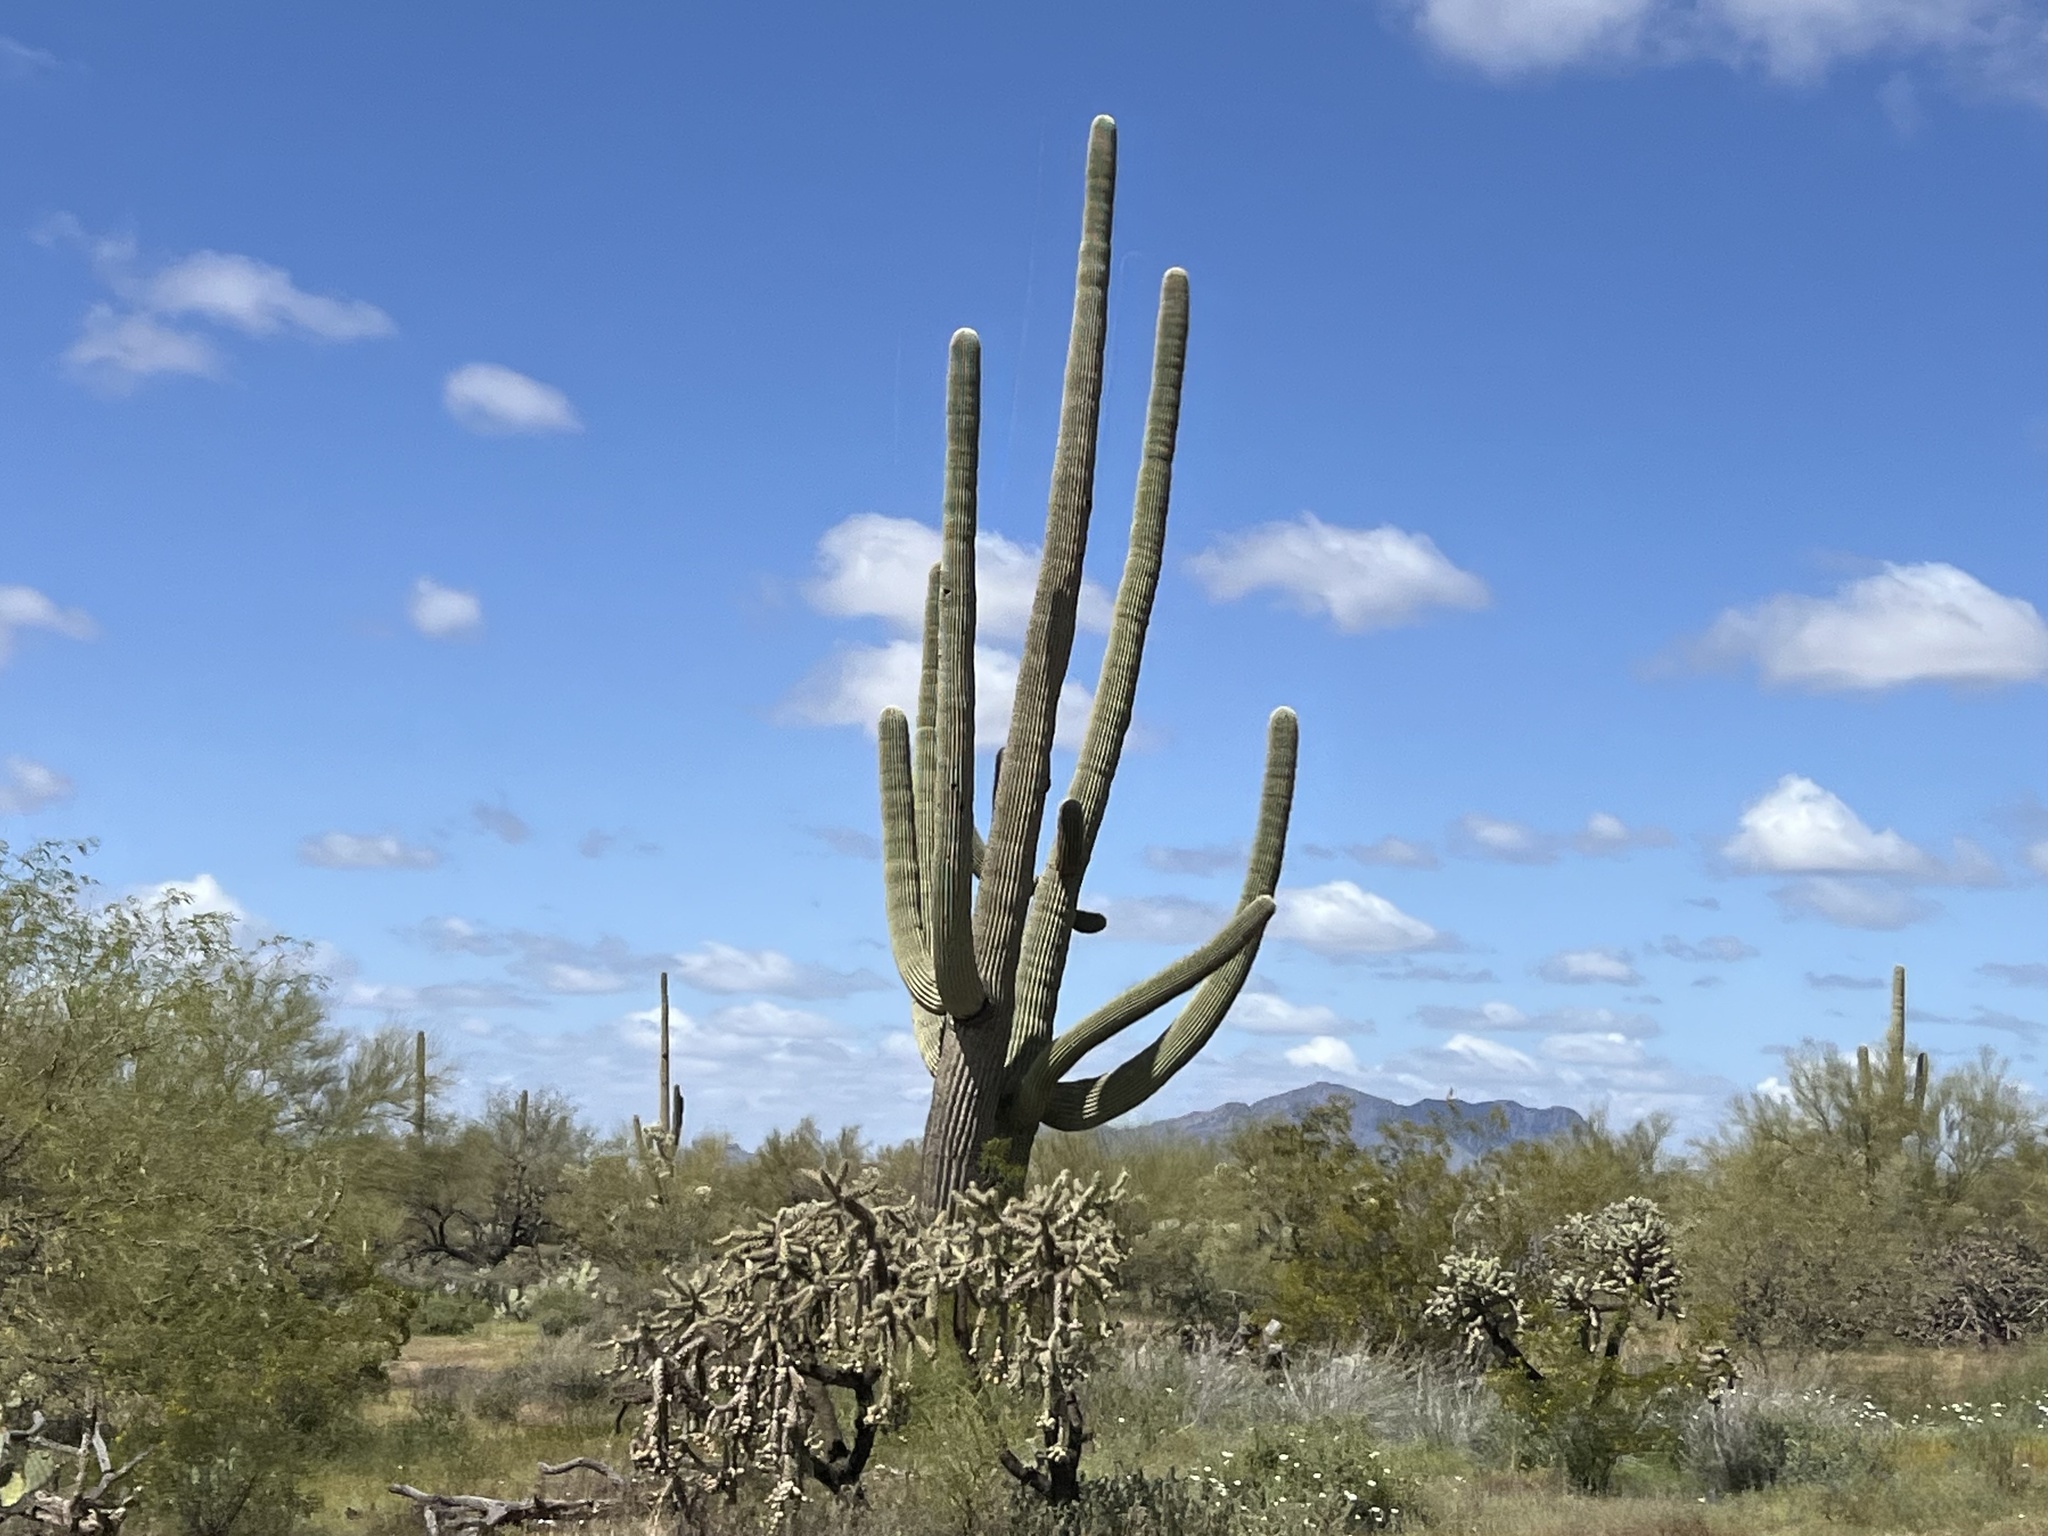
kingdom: Plantae
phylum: Tracheophyta
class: Magnoliopsida
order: Caryophyllales
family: Cactaceae
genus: Carnegiea
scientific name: Carnegiea gigantea
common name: Saguaro
